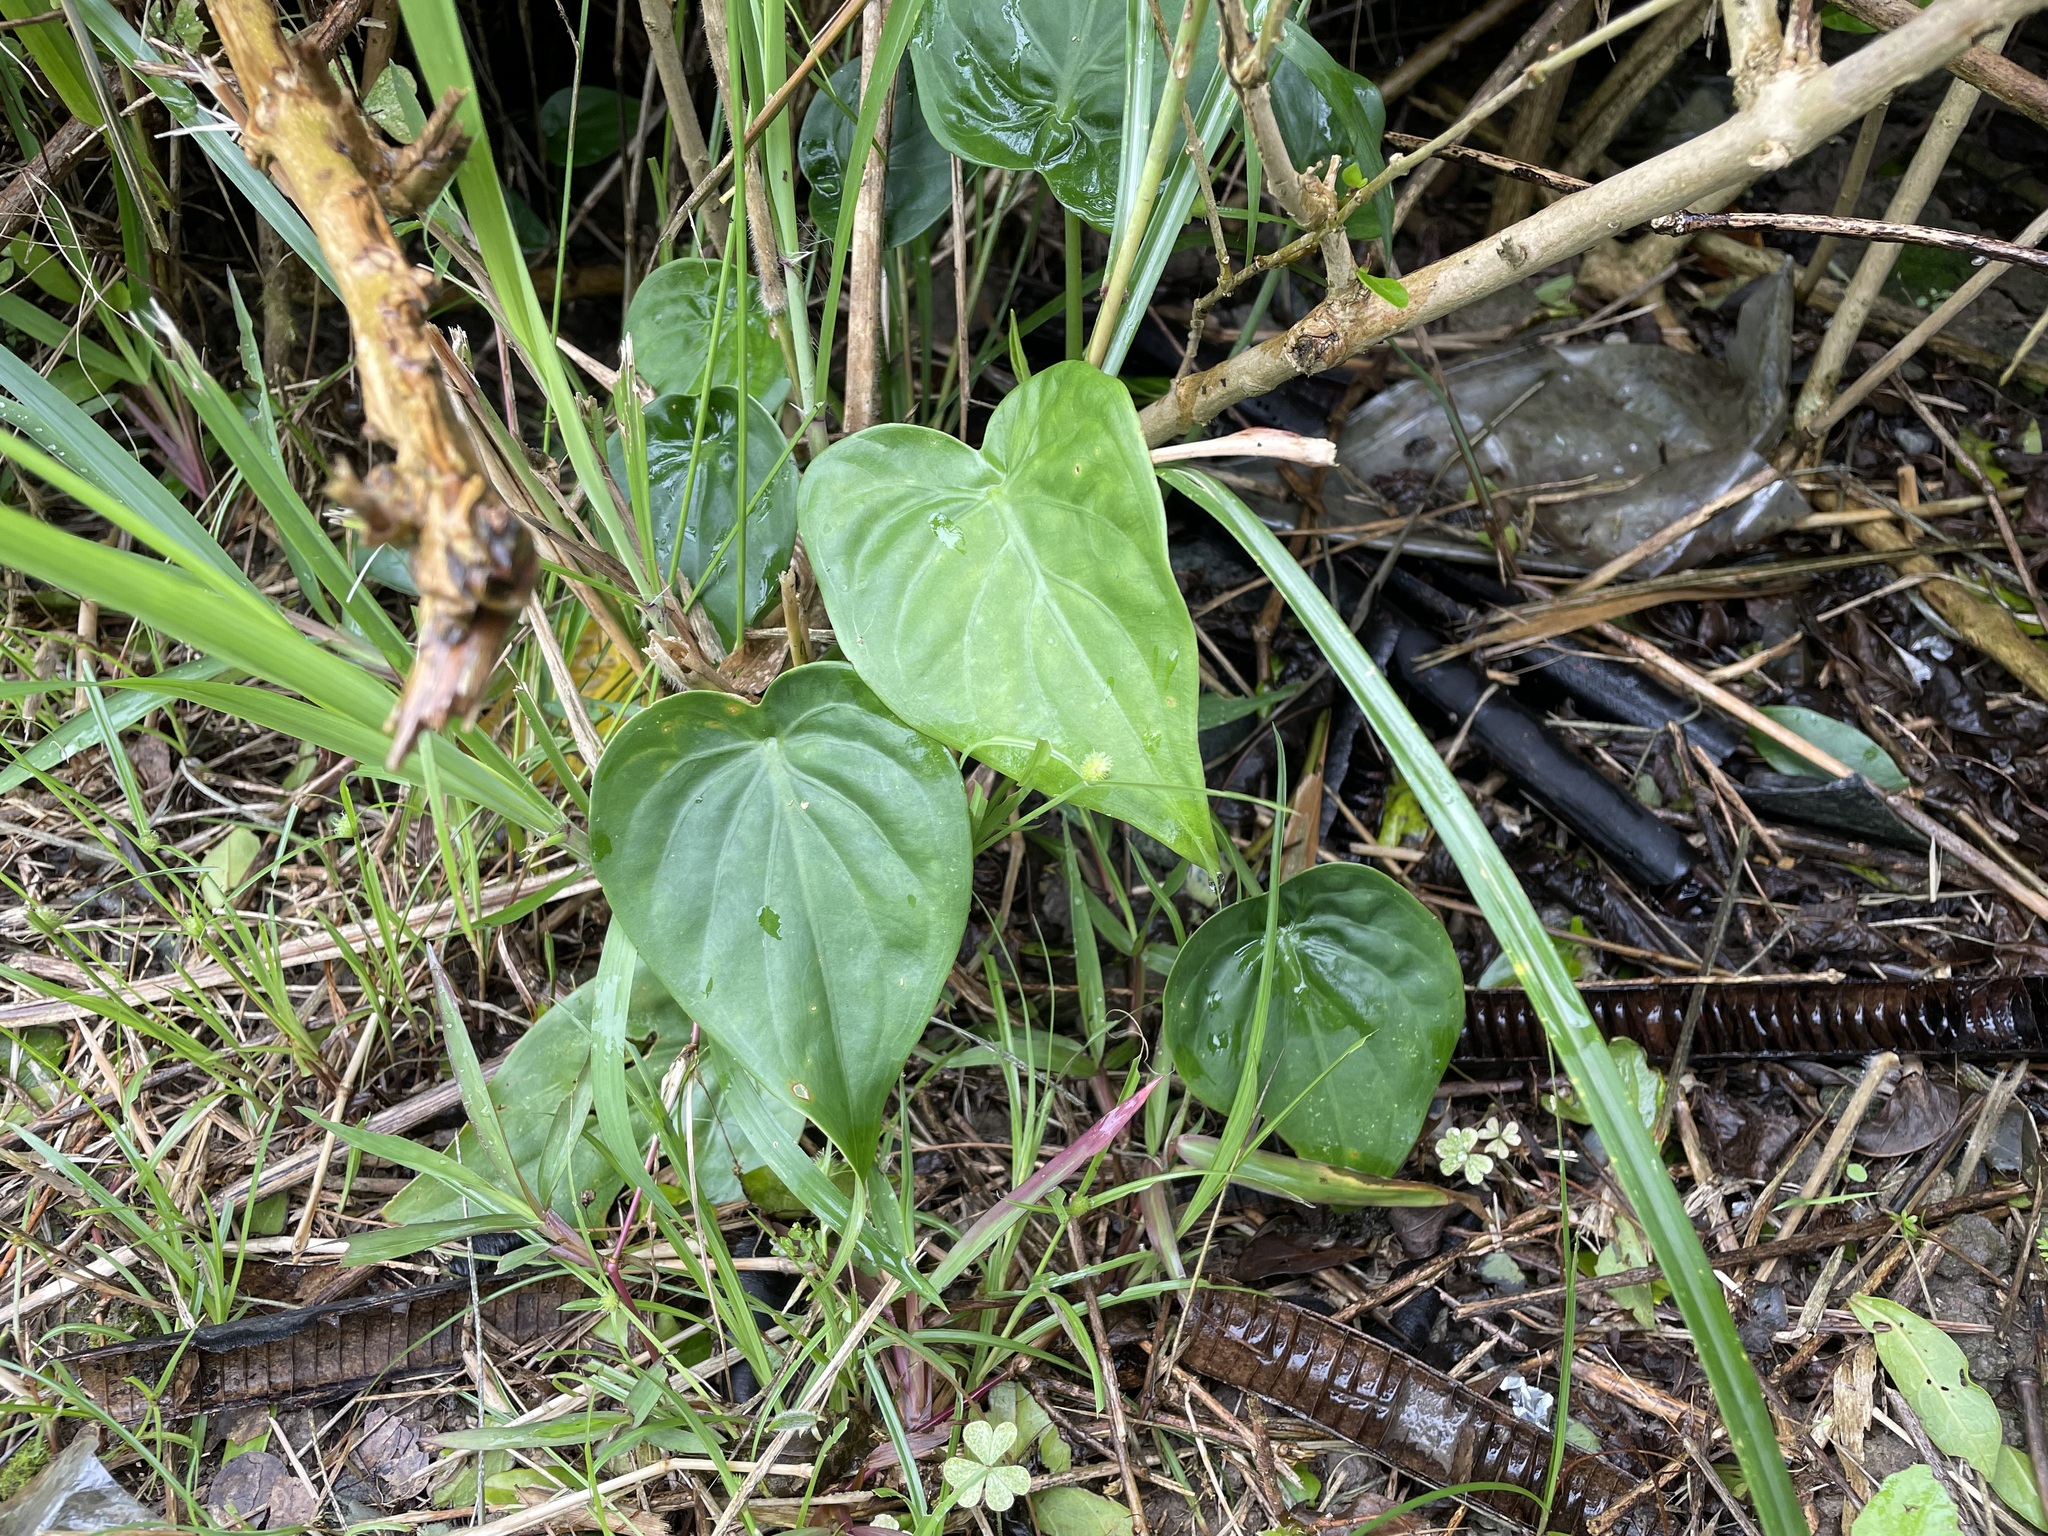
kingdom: Plantae
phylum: Tracheophyta
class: Liliopsida
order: Alismatales
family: Araceae
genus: Alocasia
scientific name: Alocasia cucullata
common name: Buddha's hand
